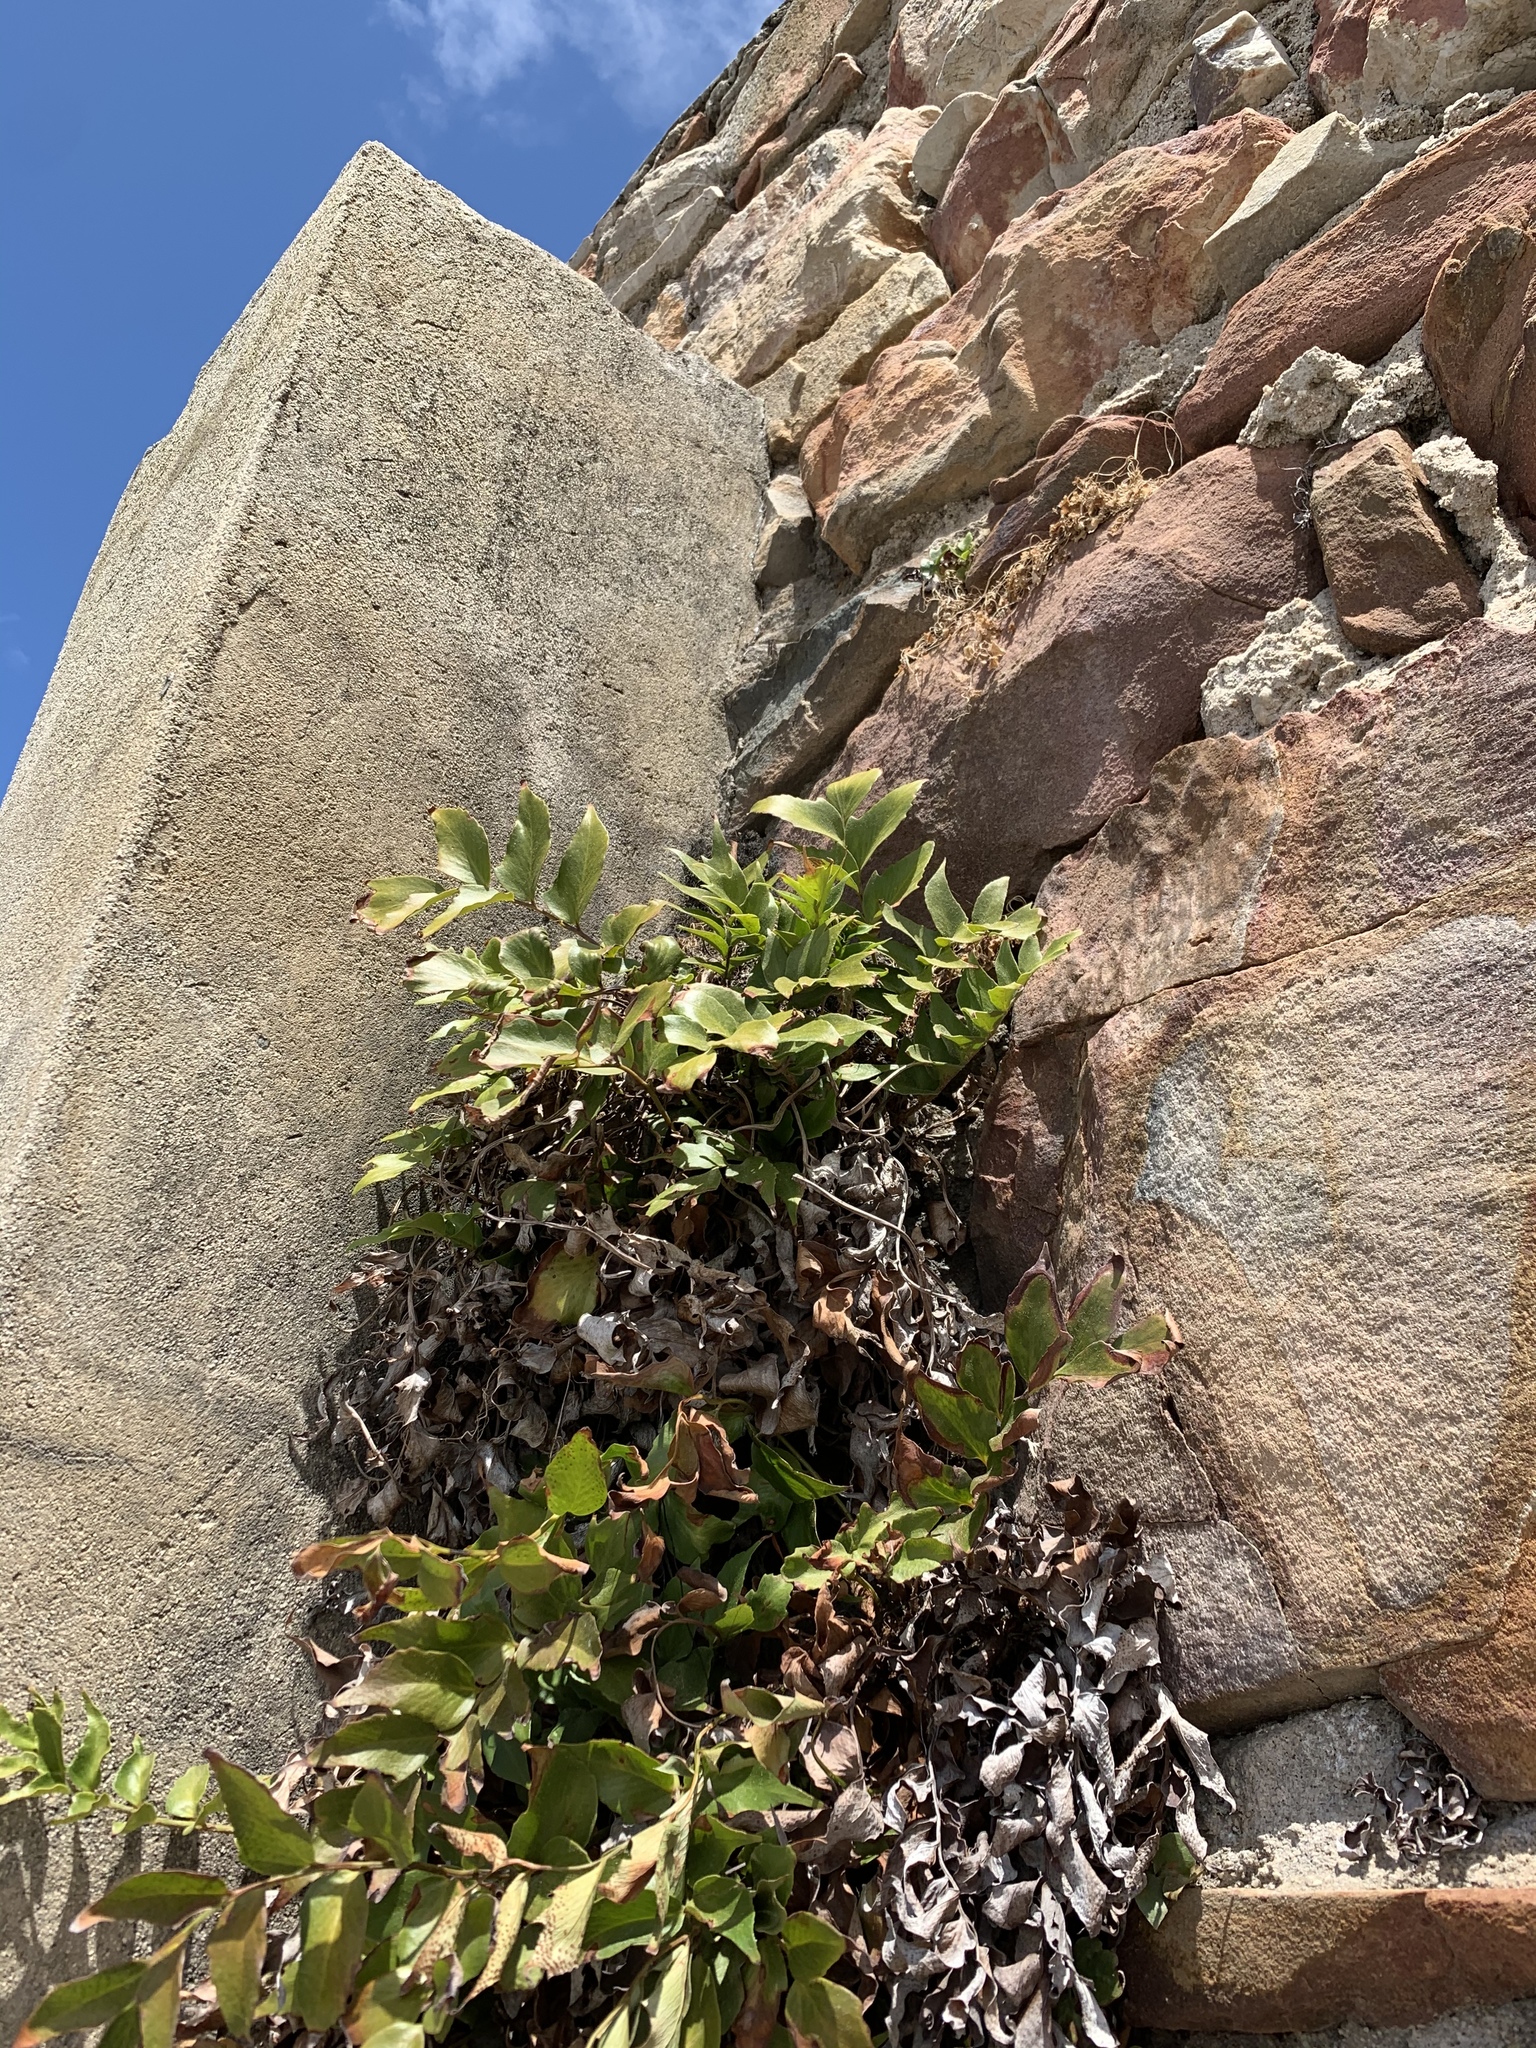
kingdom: Plantae
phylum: Tracheophyta
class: Polypodiopsida
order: Polypodiales
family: Dryopteridaceae
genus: Cyrtomium
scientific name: Cyrtomium falcatum
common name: House holly-fern
